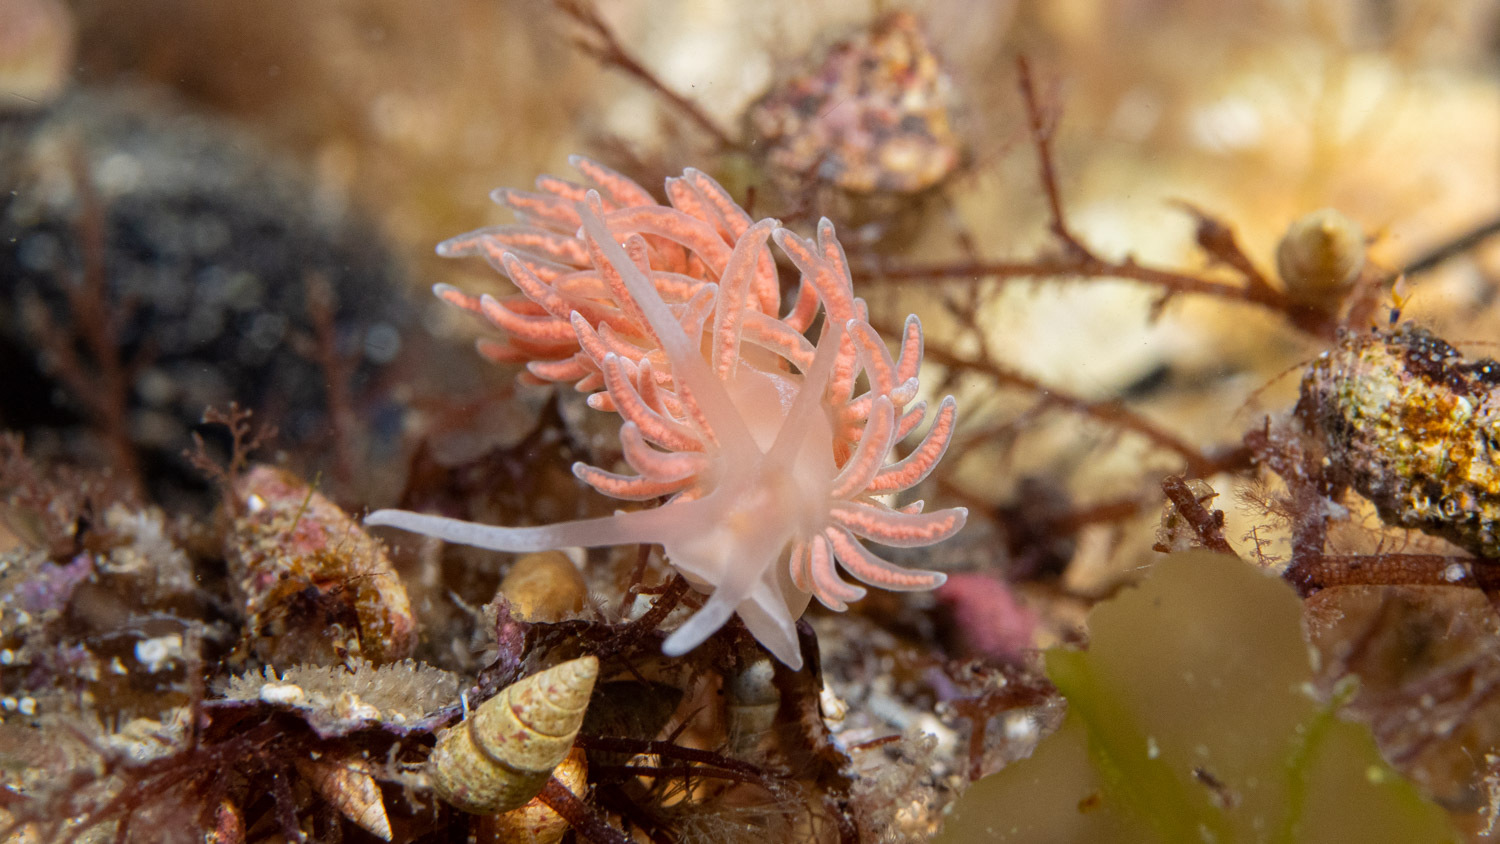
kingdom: Animalia
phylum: Mollusca
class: Gastropoda
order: Nudibranchia
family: Myrrhinidae
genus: Phyllodesmium
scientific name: Phyllodesmium serratum
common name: Coral nudibranch
